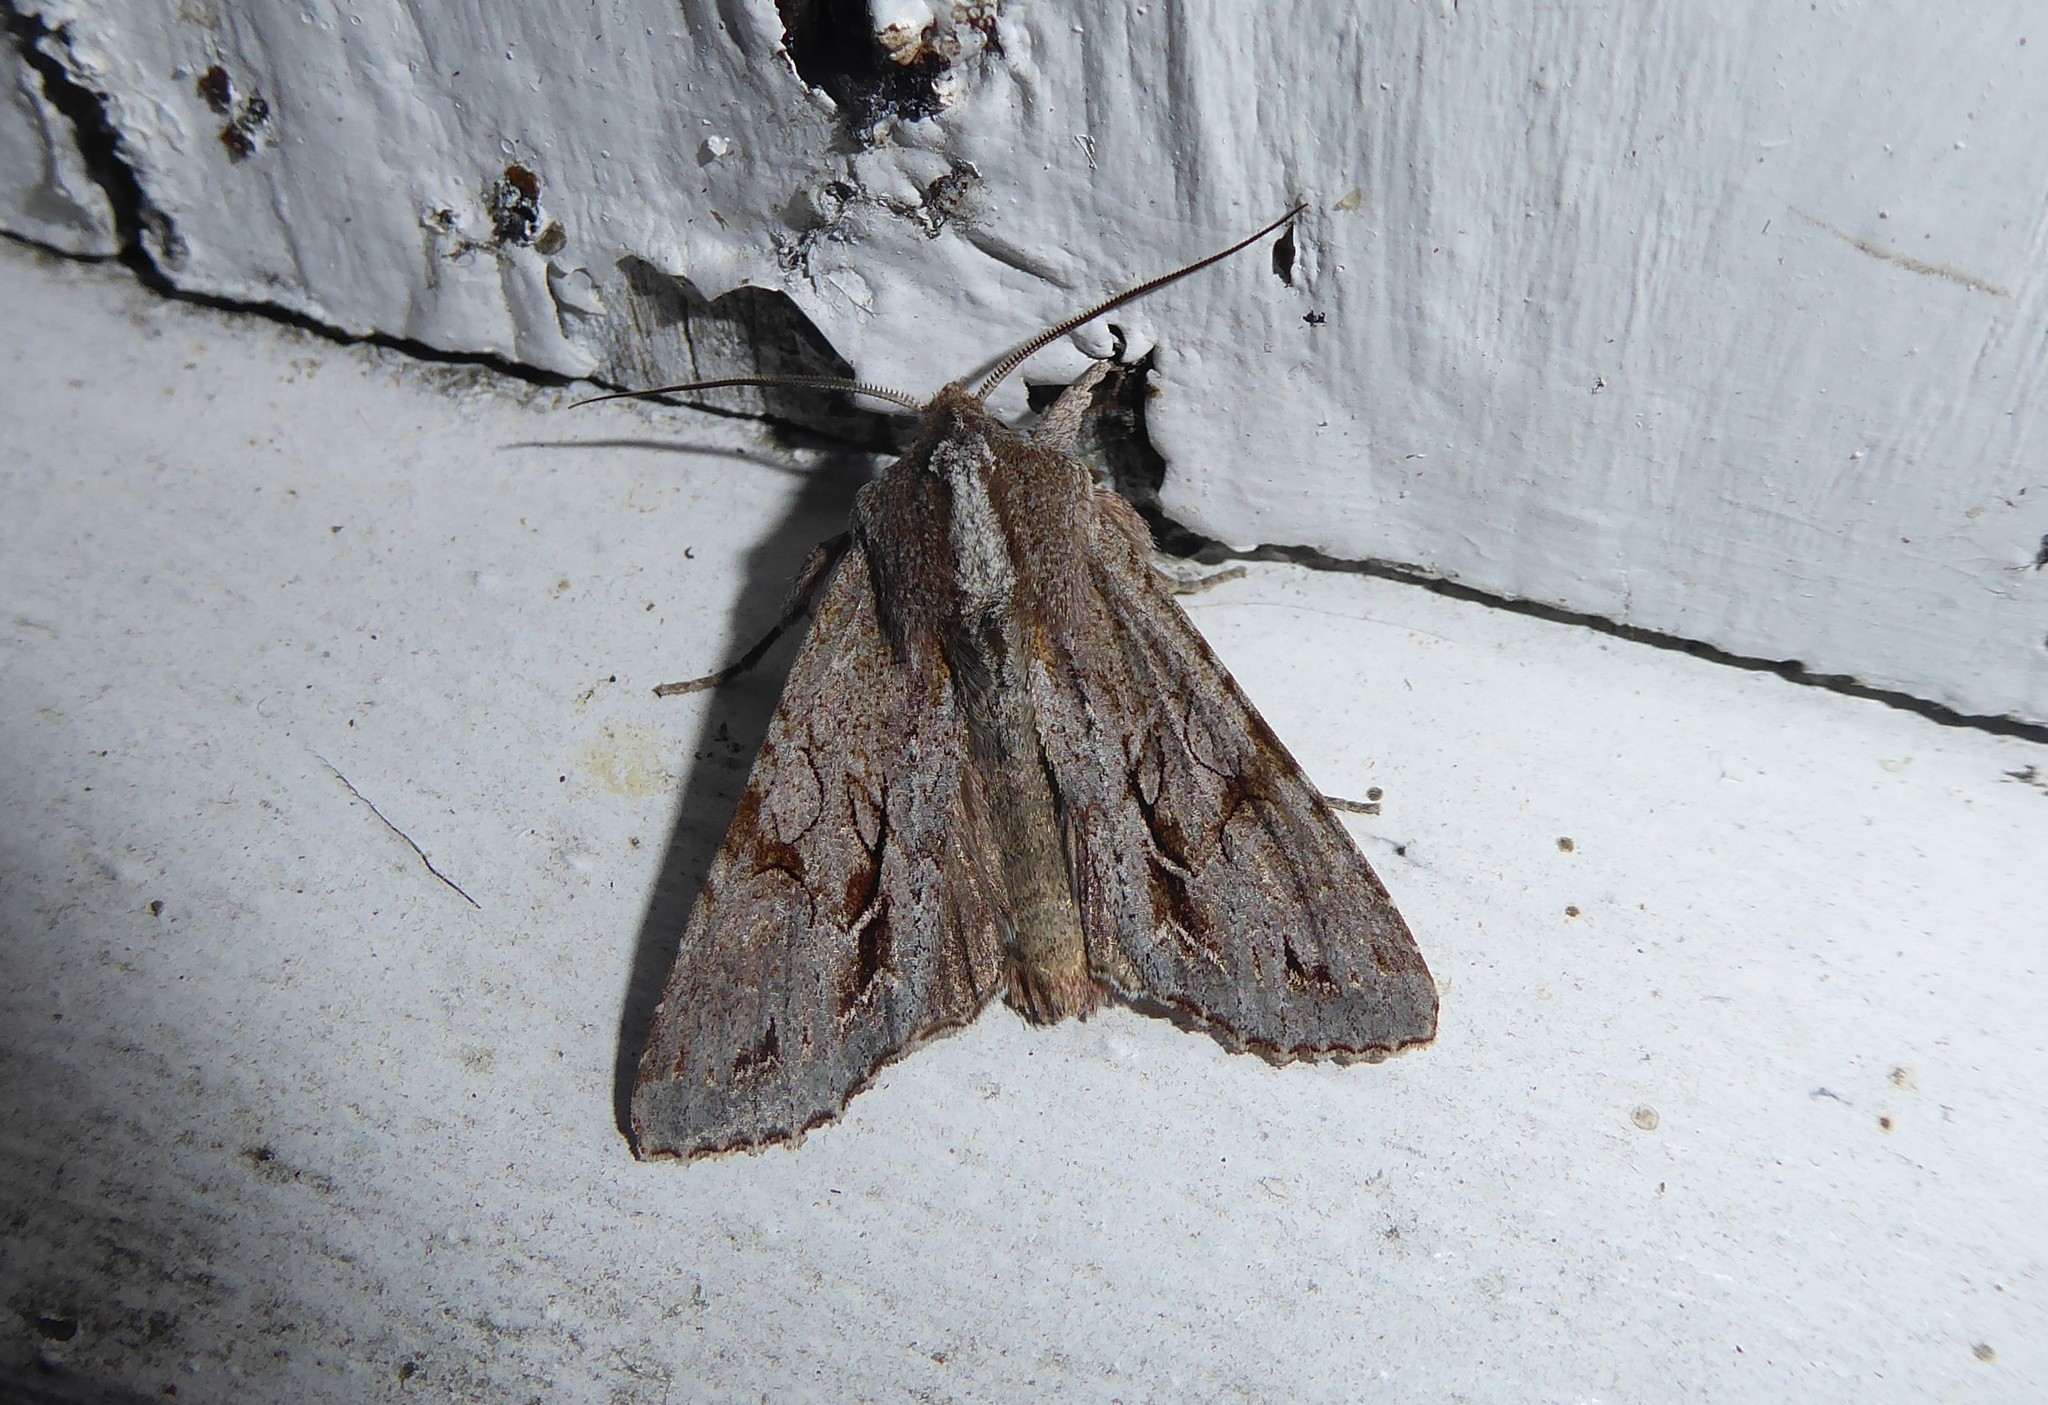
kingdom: Animalia
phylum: Arthropoda
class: Insecta
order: Lepidoptera
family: Noctuidae
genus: Ichneutica
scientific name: Ichneutica
